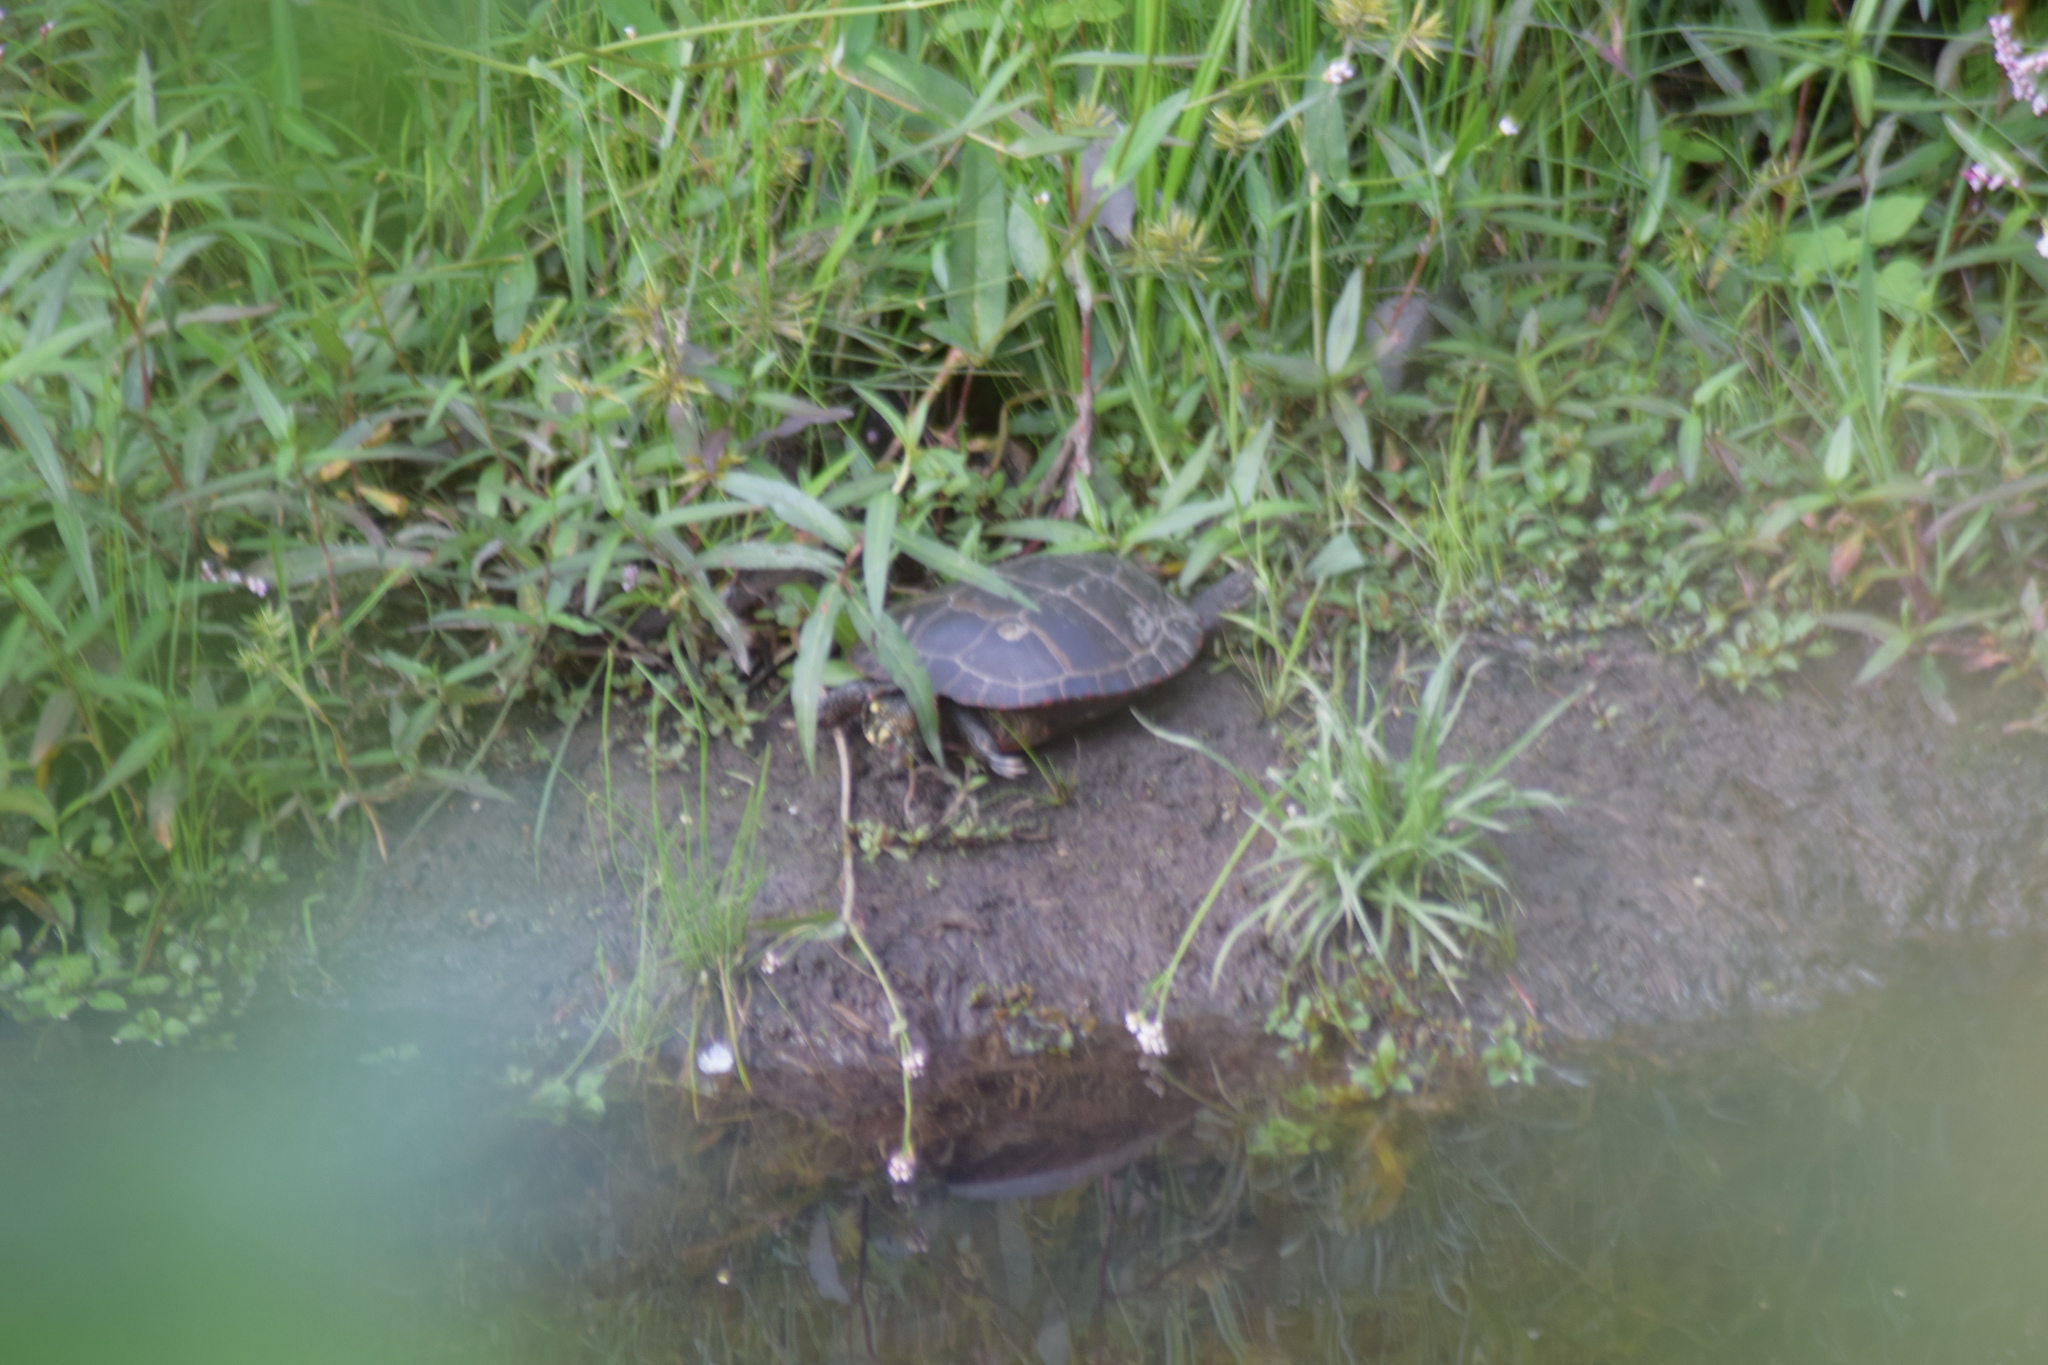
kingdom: Animalia
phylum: Chordata
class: Testudines
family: Emydidae
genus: Chrysemys
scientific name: Chrysemys picta
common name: Painted turtle
